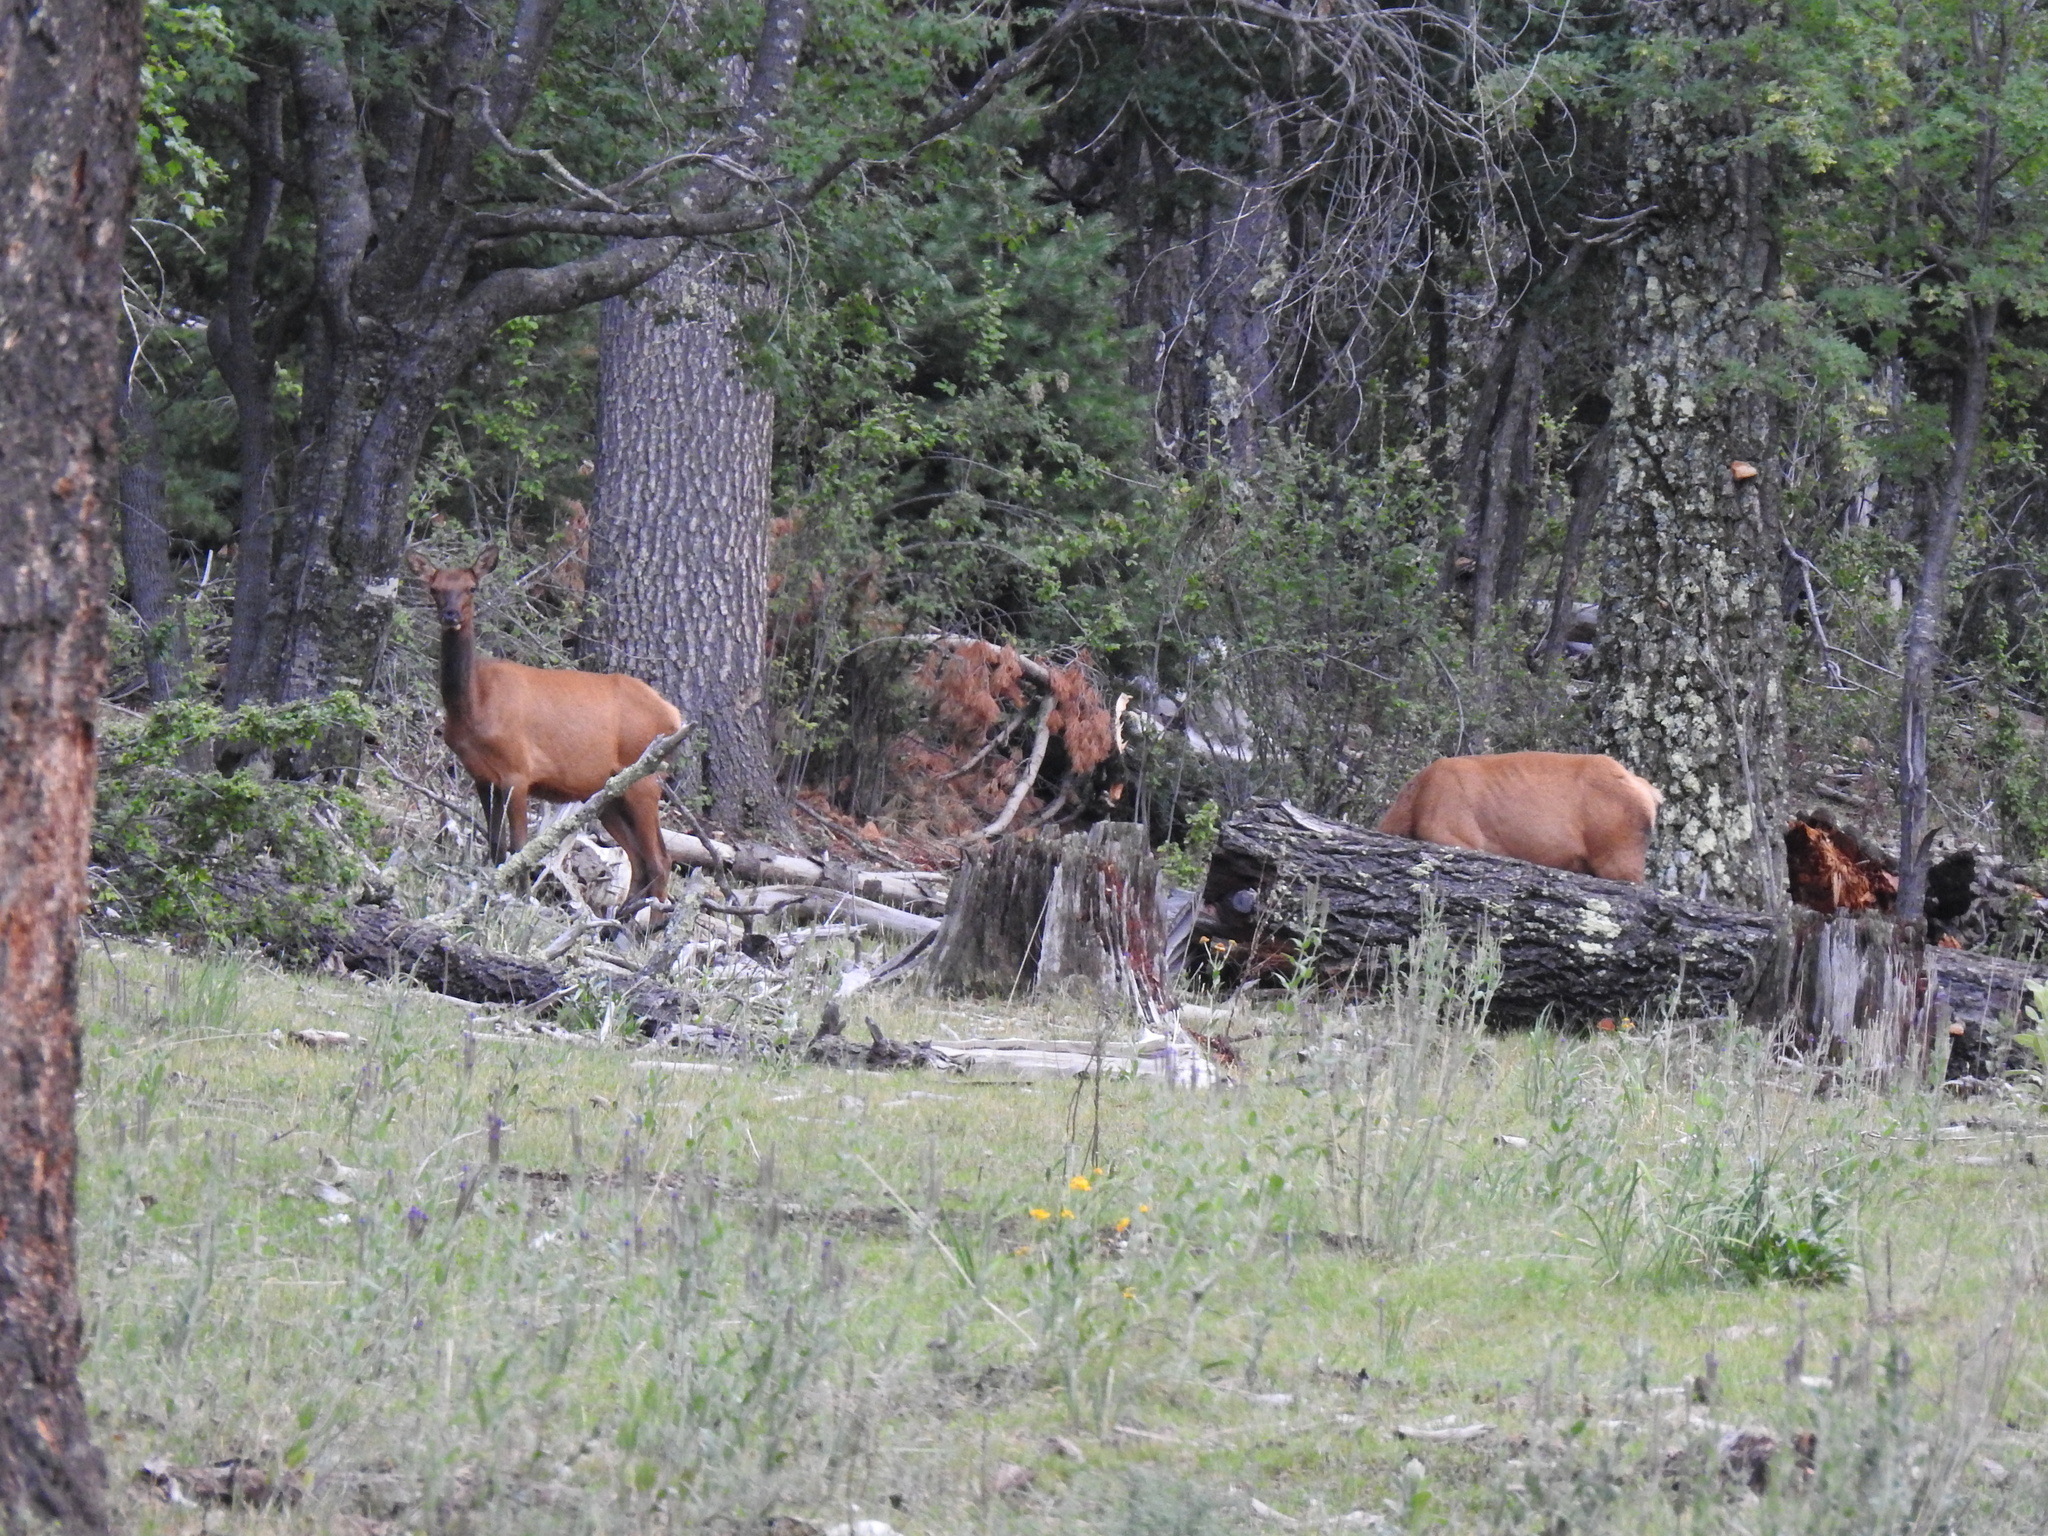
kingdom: Animalia
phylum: Chordata
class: Mammalia
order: Artiodactyla
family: Cervidae
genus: Cervus
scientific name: Cervus elaphus
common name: Red deer
